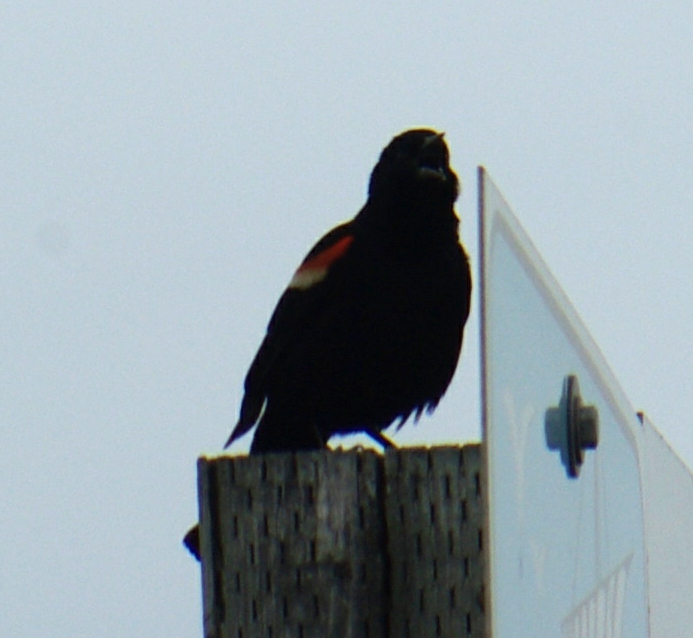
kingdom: Animalia
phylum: Chordata
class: Aves
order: Passeriformes
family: Icteridae
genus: Agelaius
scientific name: Agelaius phoeniceus
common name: Red-winged blackbird
